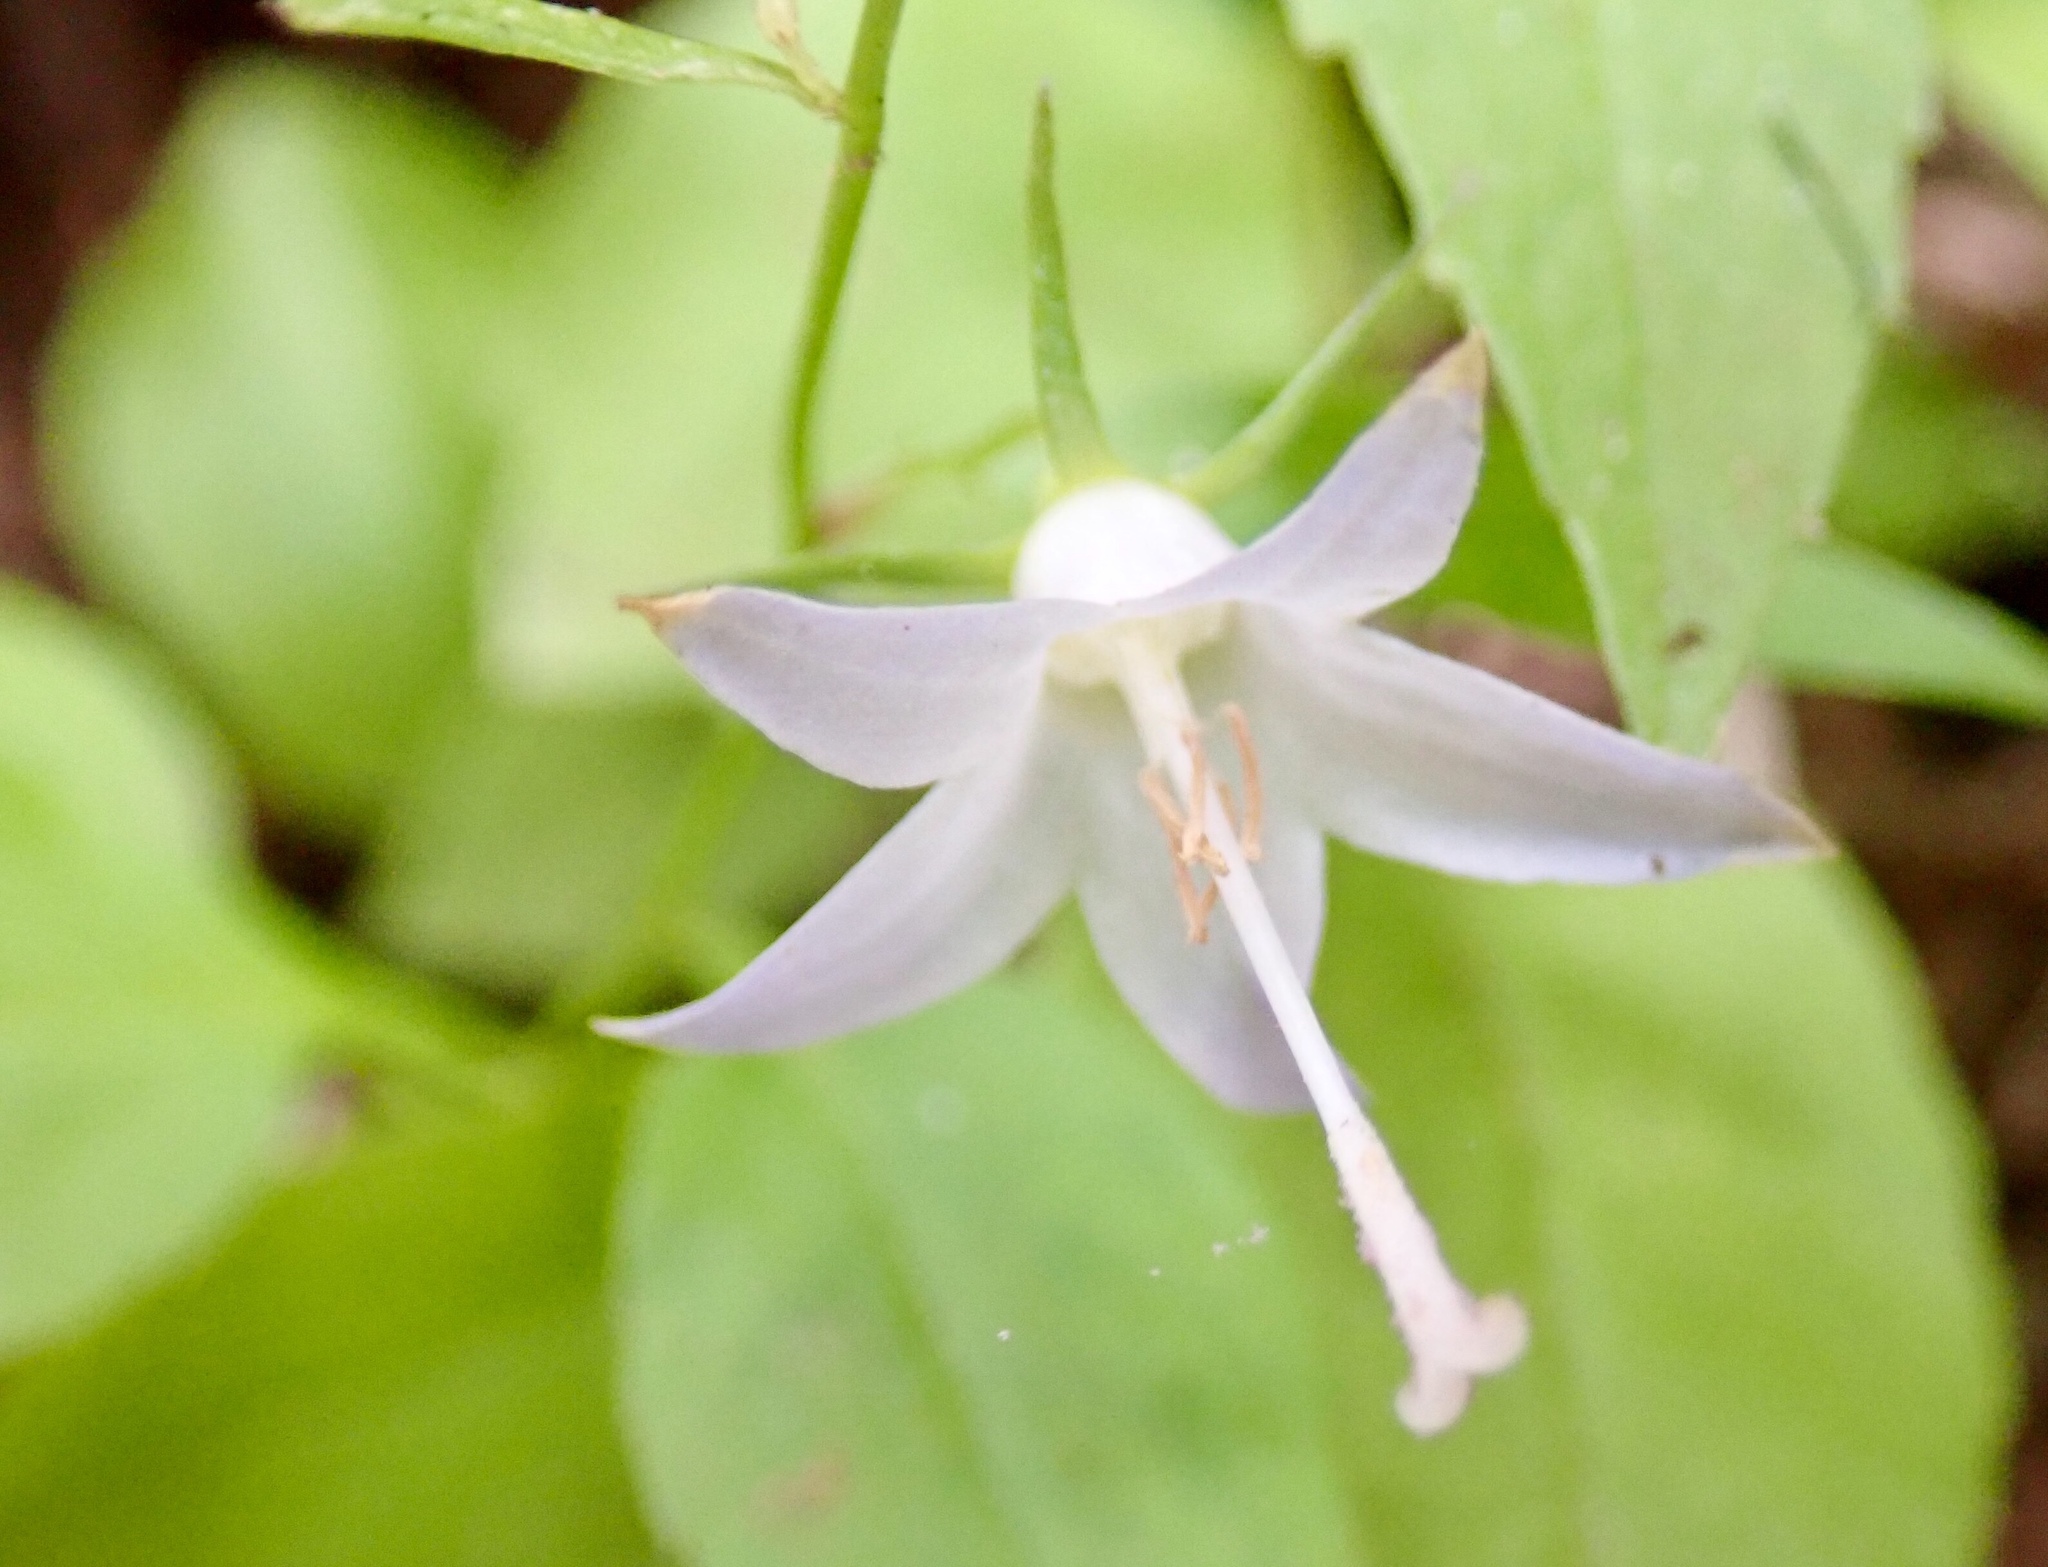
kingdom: Plantae
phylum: Tracheophyta
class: Magnoliopsida
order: Asterales
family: Campanulaceae
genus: Campanula
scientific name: Campanula scouleri
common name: Scouler's harebell
